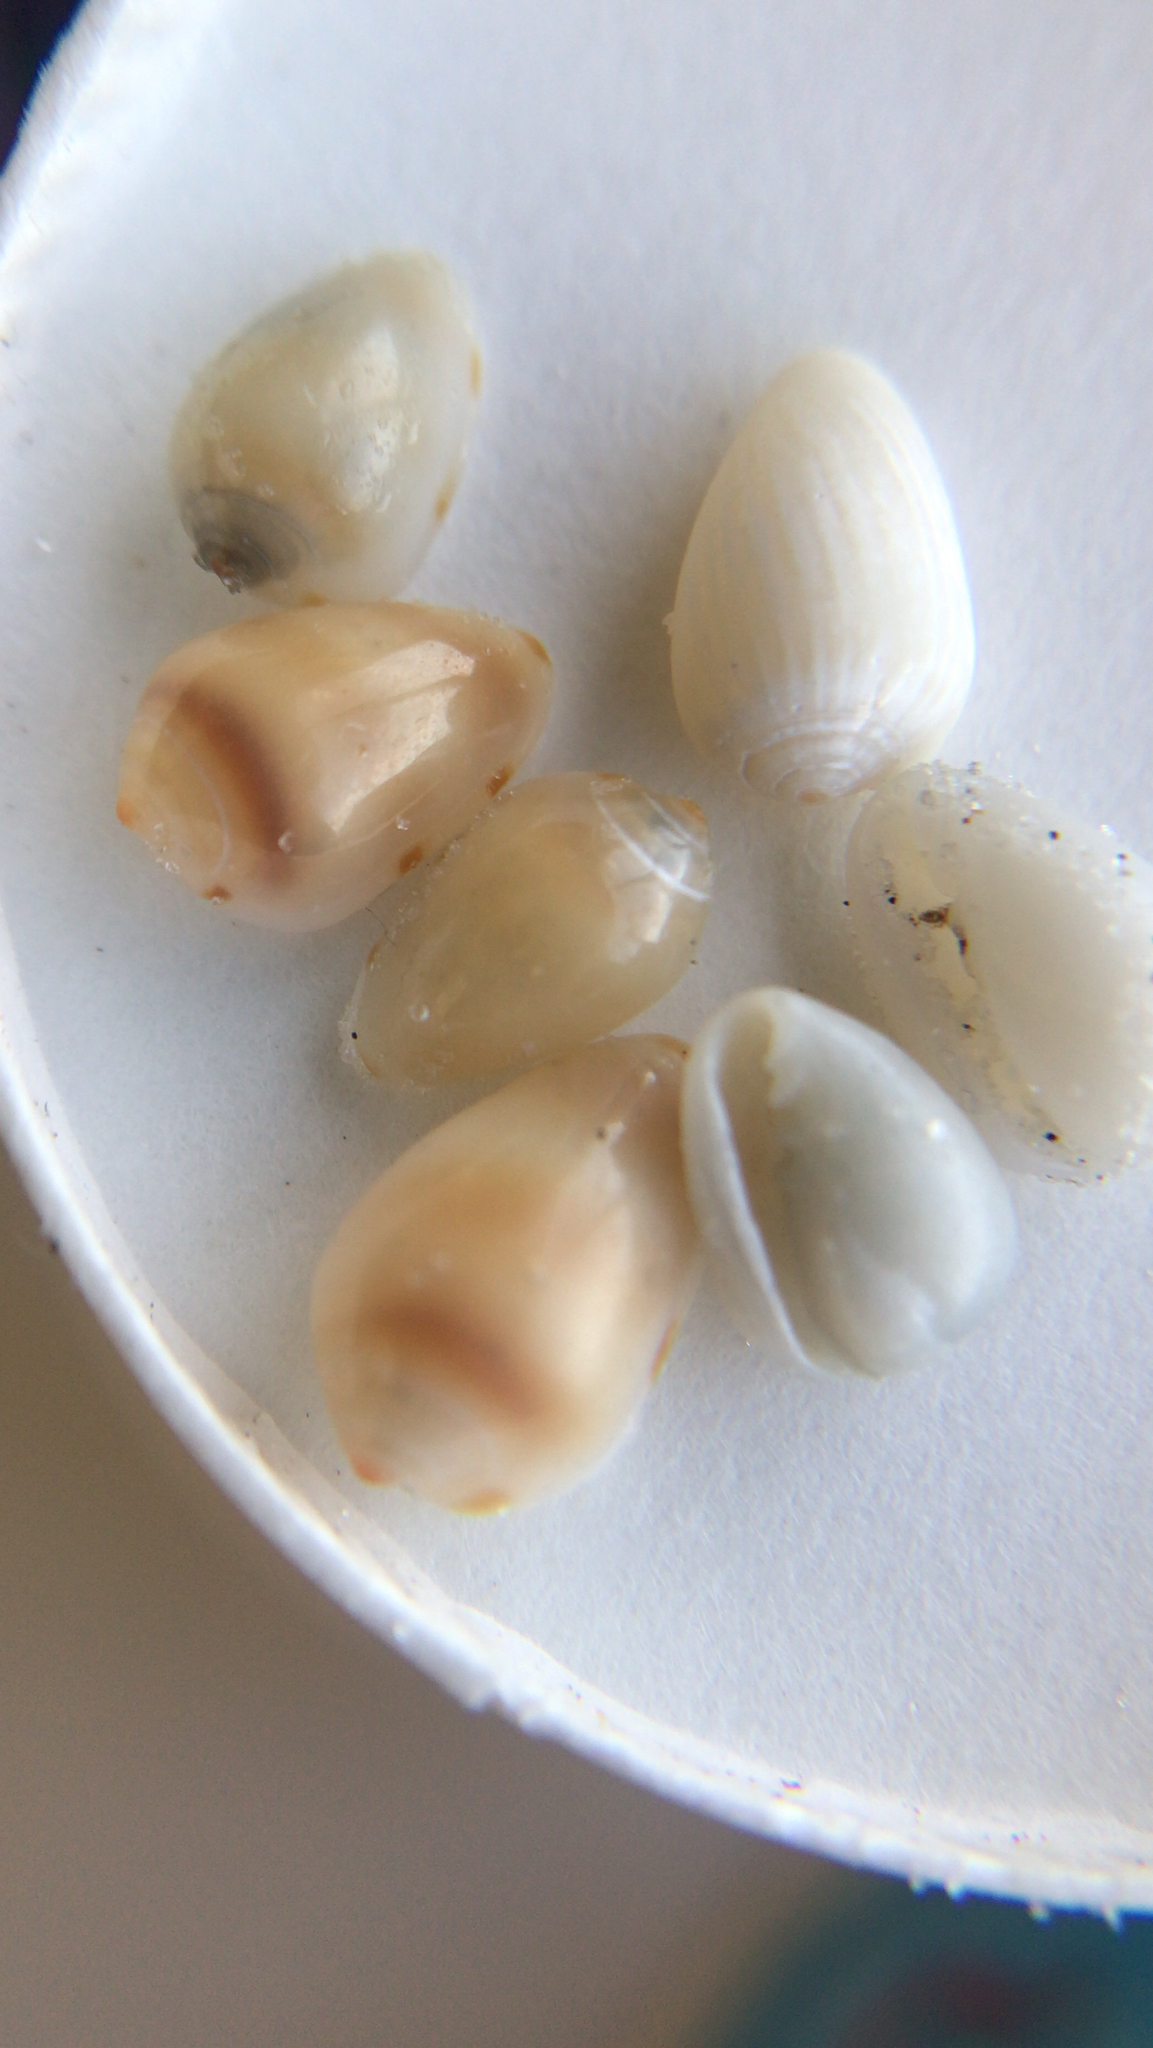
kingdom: Animalia
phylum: Mollusca
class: Gastropoda
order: Neogastropoda
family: Marginellidae
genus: Prunum
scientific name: Prunum apicinum
